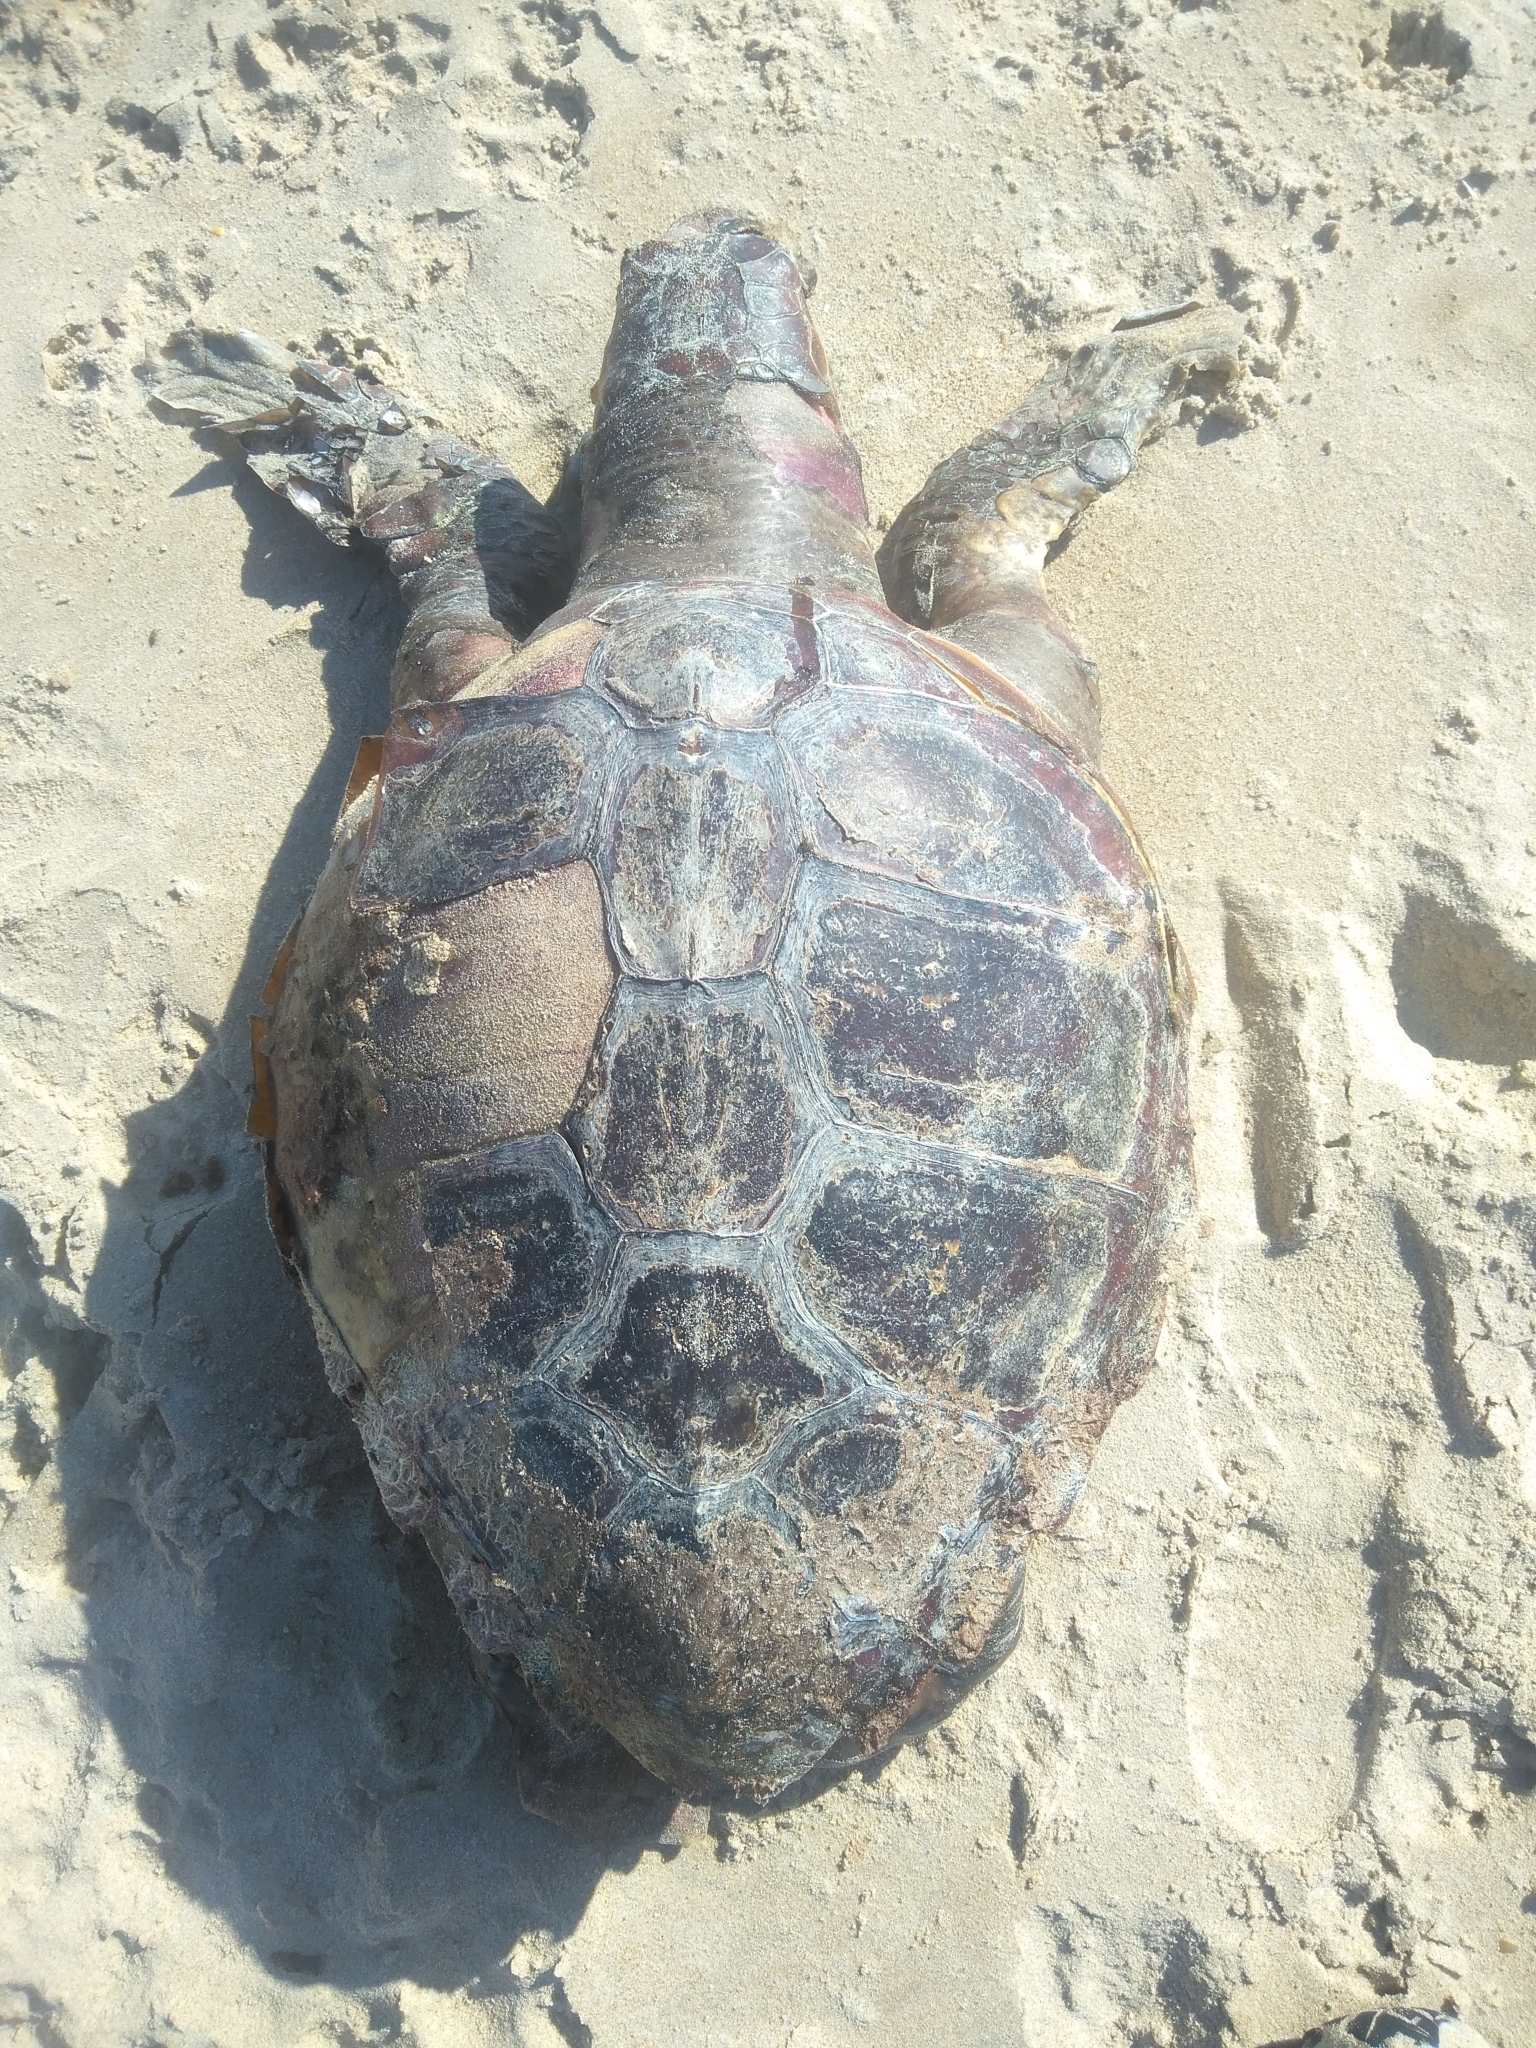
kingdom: Animalia
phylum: Chordata
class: Testudines
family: Cheloniidae
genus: Caretta
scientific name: Caretta caretta
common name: Loggerhead sea turtle
